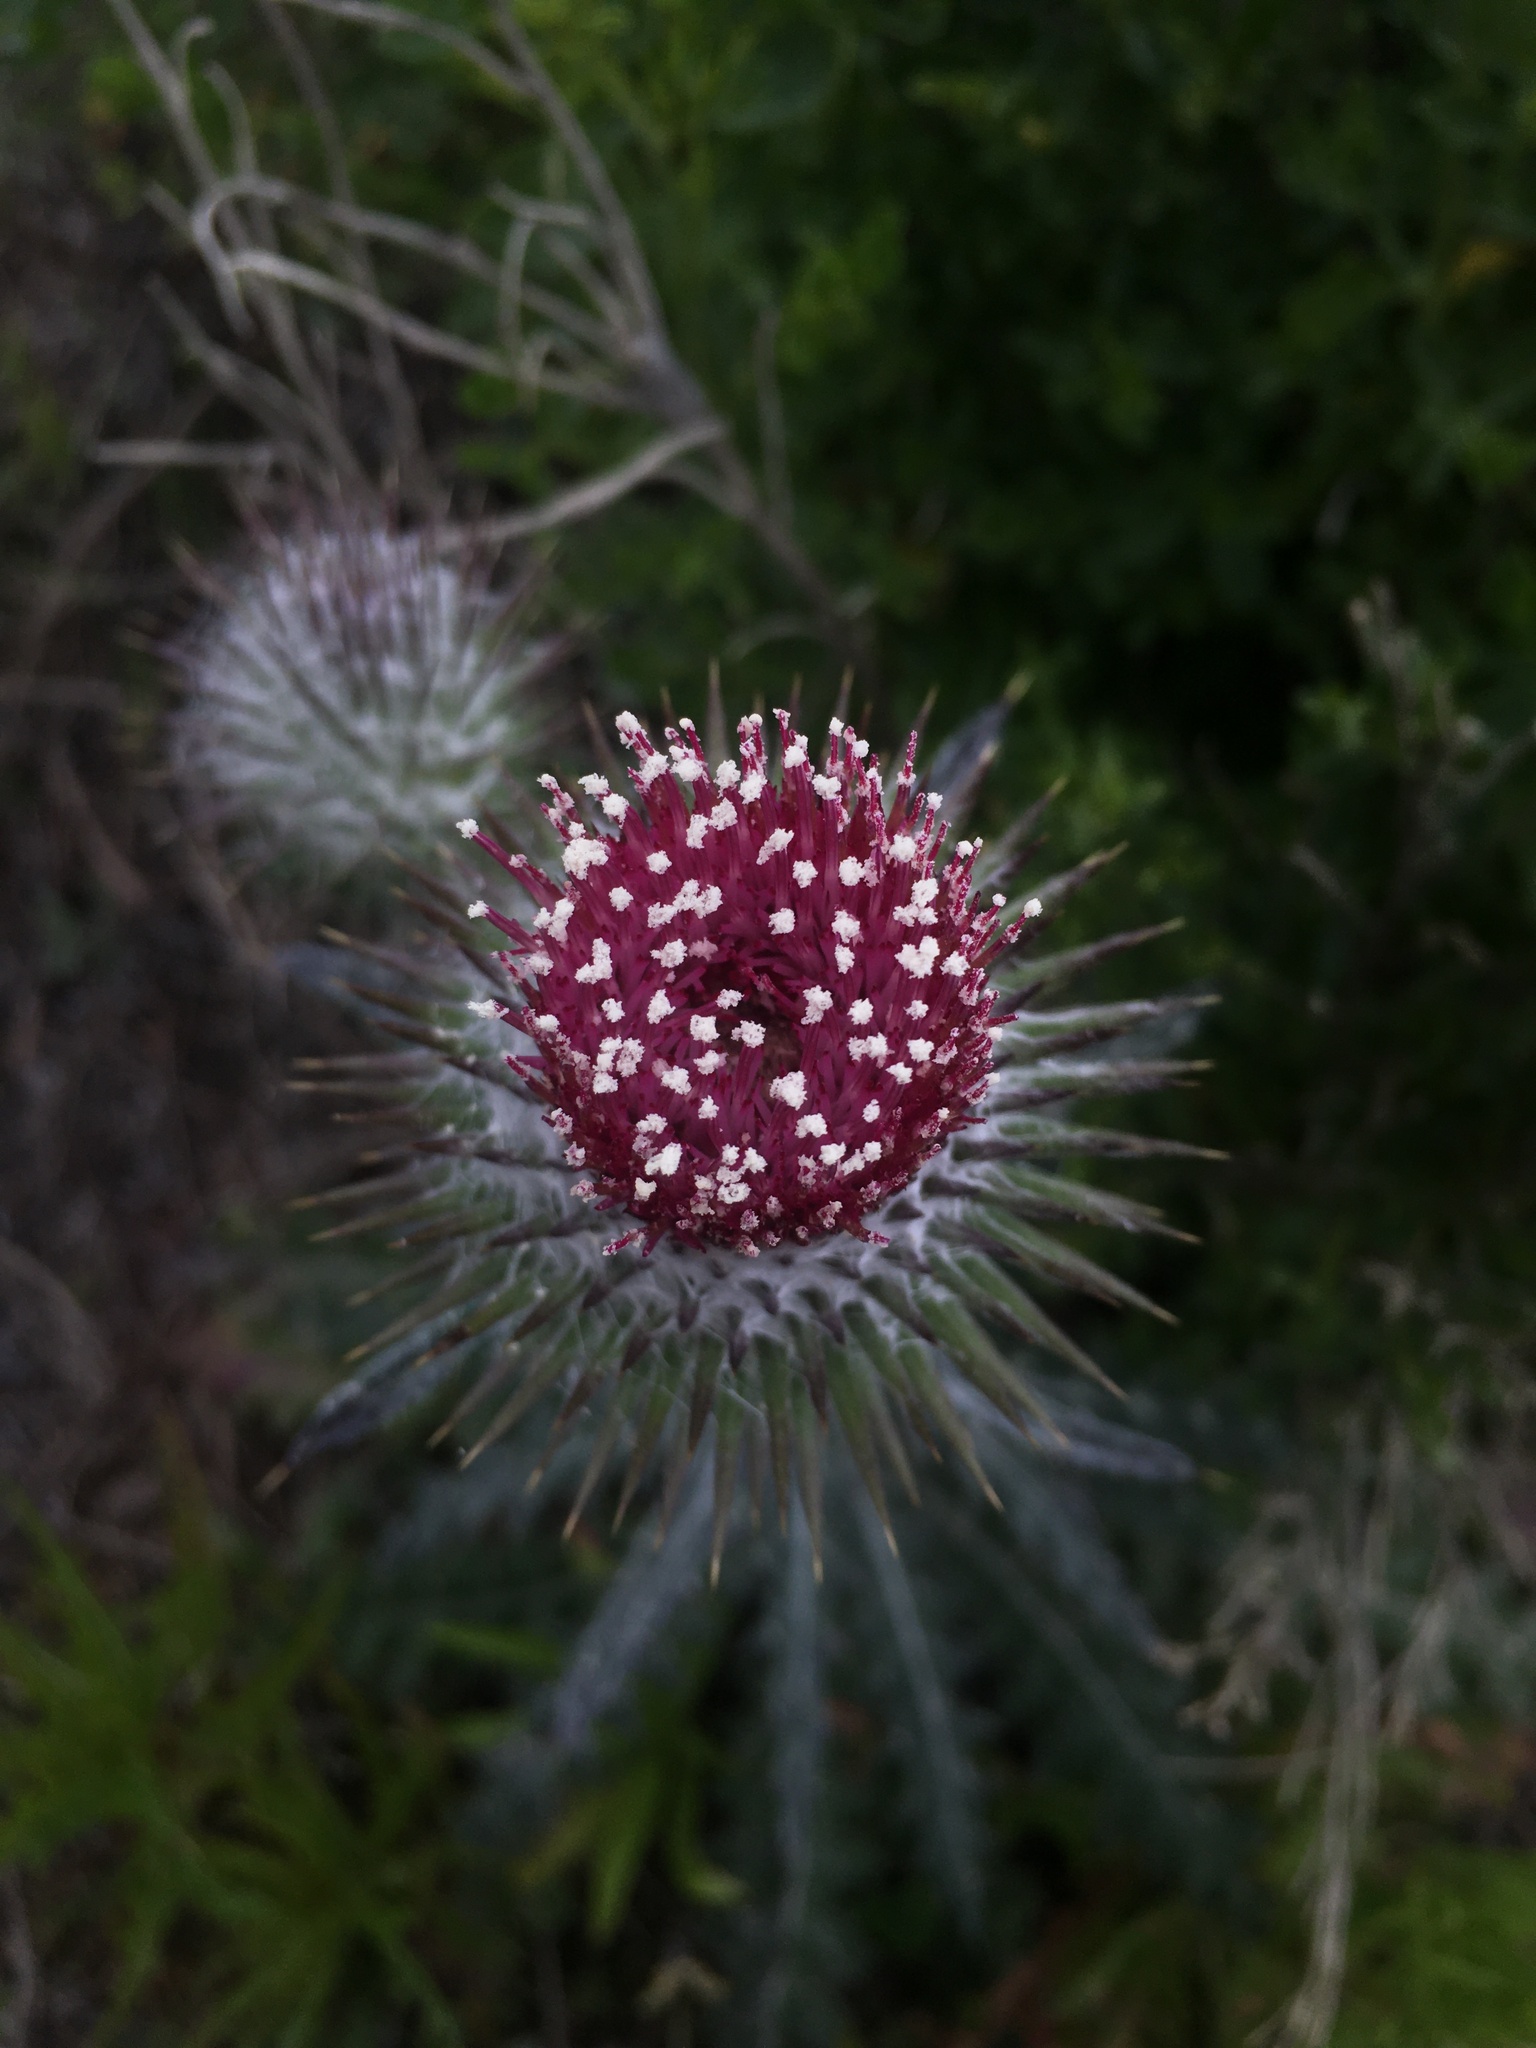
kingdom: Plantae
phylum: Tracheophyta
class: Magnoliopsida
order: Asterales
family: Asteraceae
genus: Cirsium
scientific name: Cirsium occidentale
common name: Western thistle
